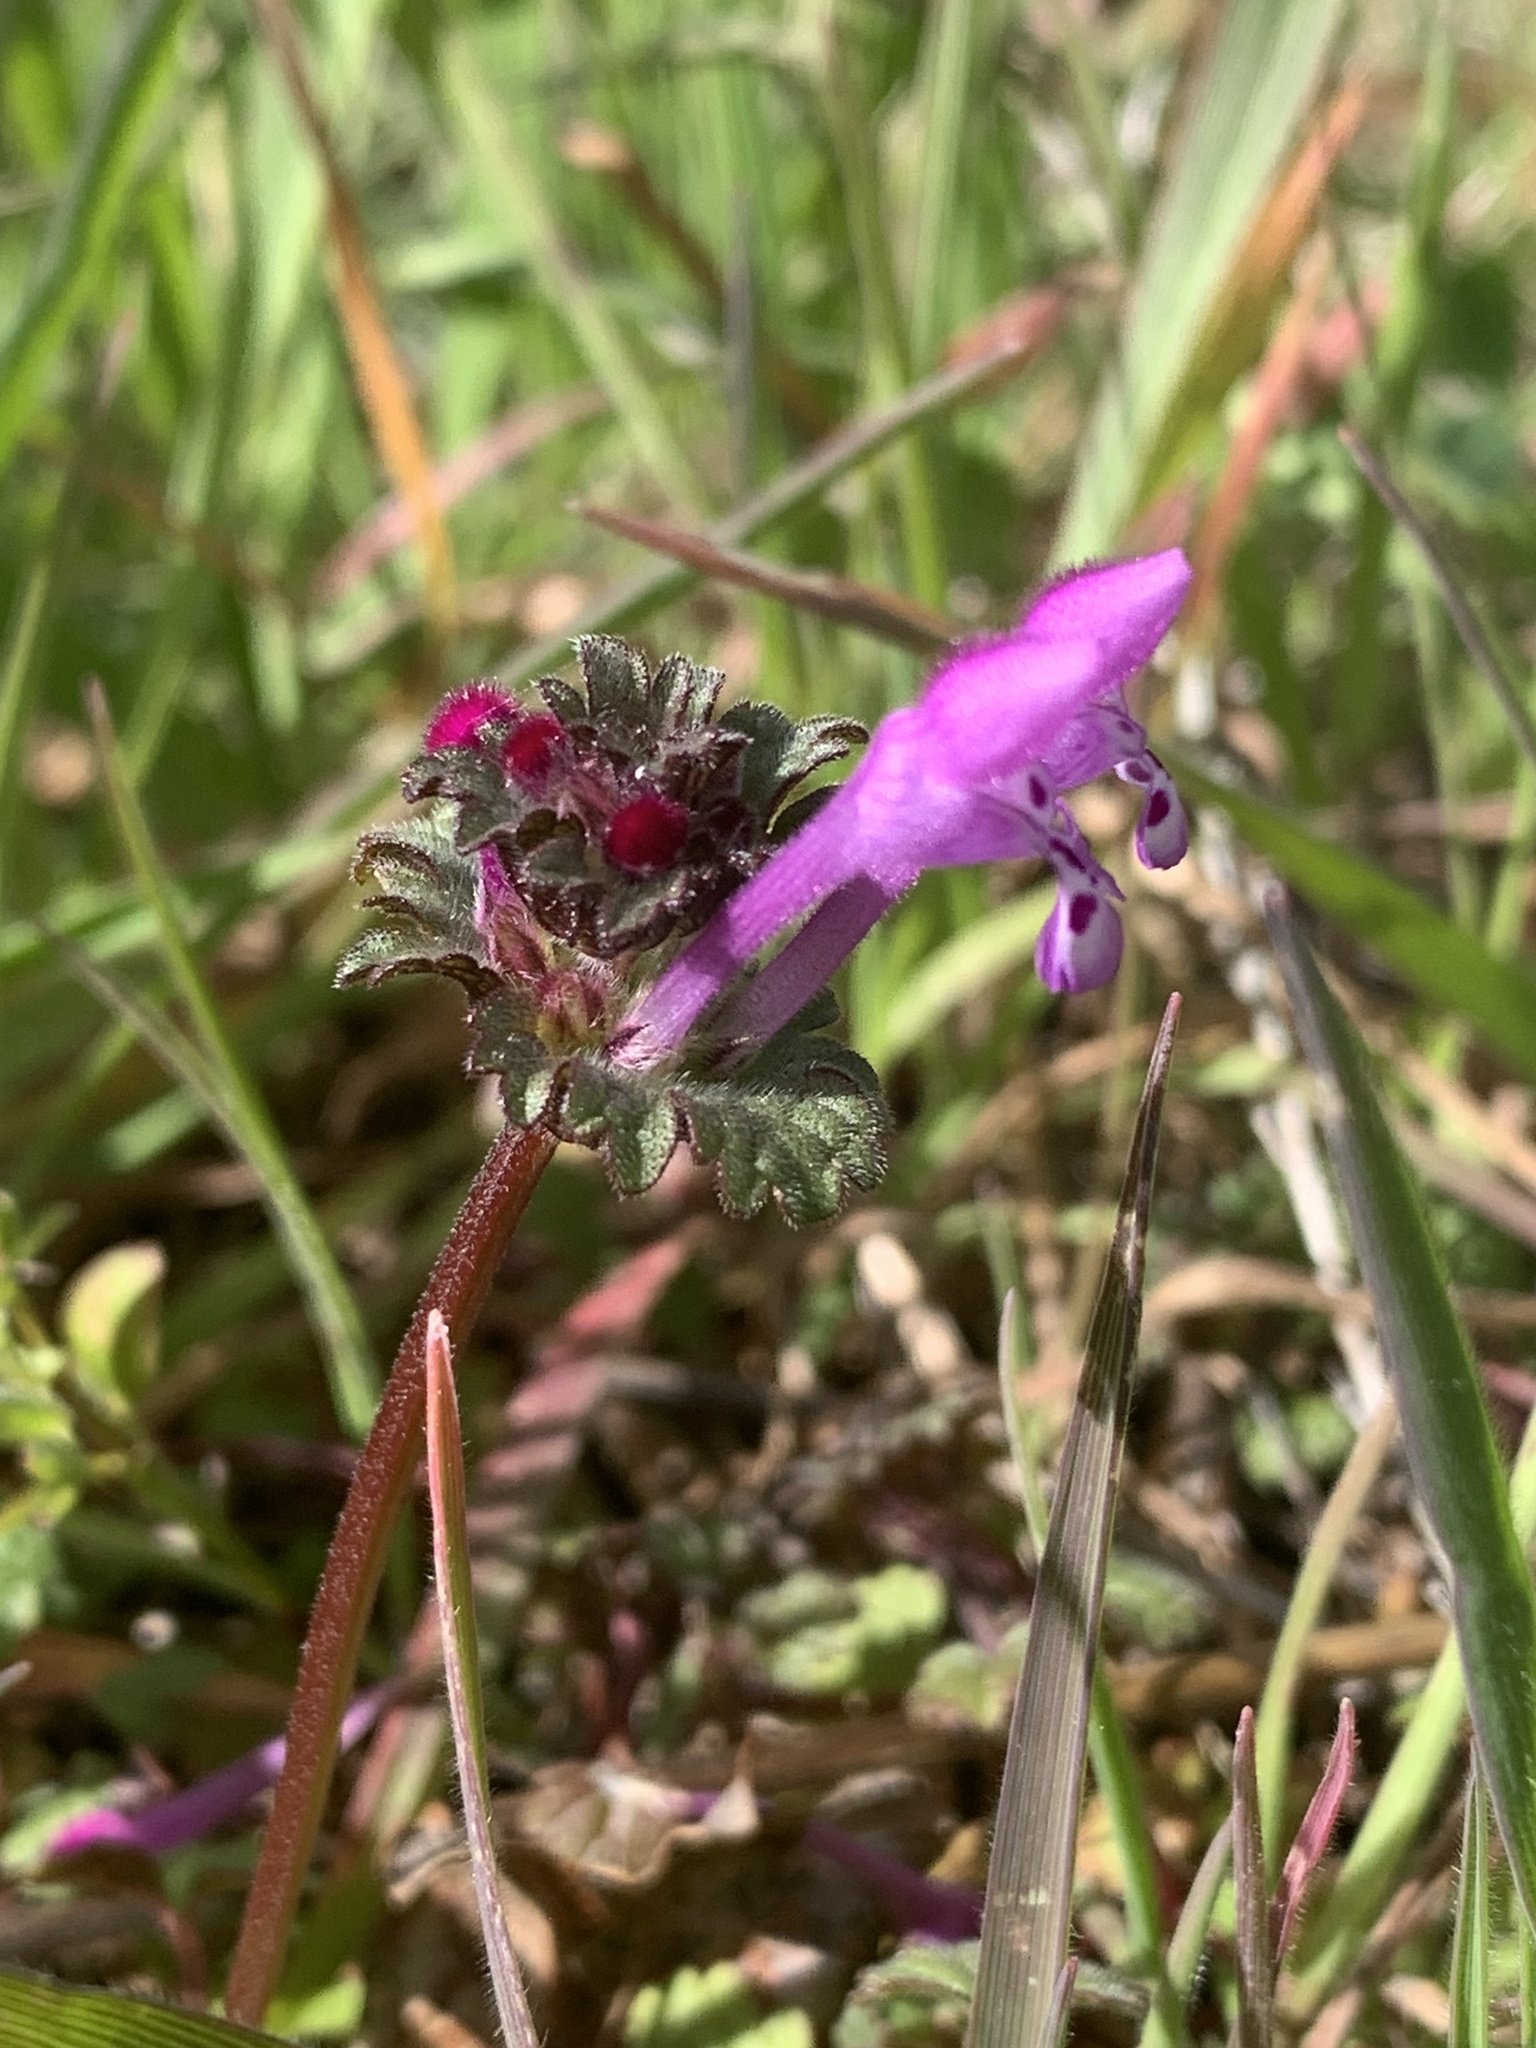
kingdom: Plantae
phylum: Tracheophyta
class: Magnoliopsida
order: Lamiales
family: Lamiaceae
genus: Lamium
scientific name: Lamium amplexicaule
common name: Henbit dead-nettle
